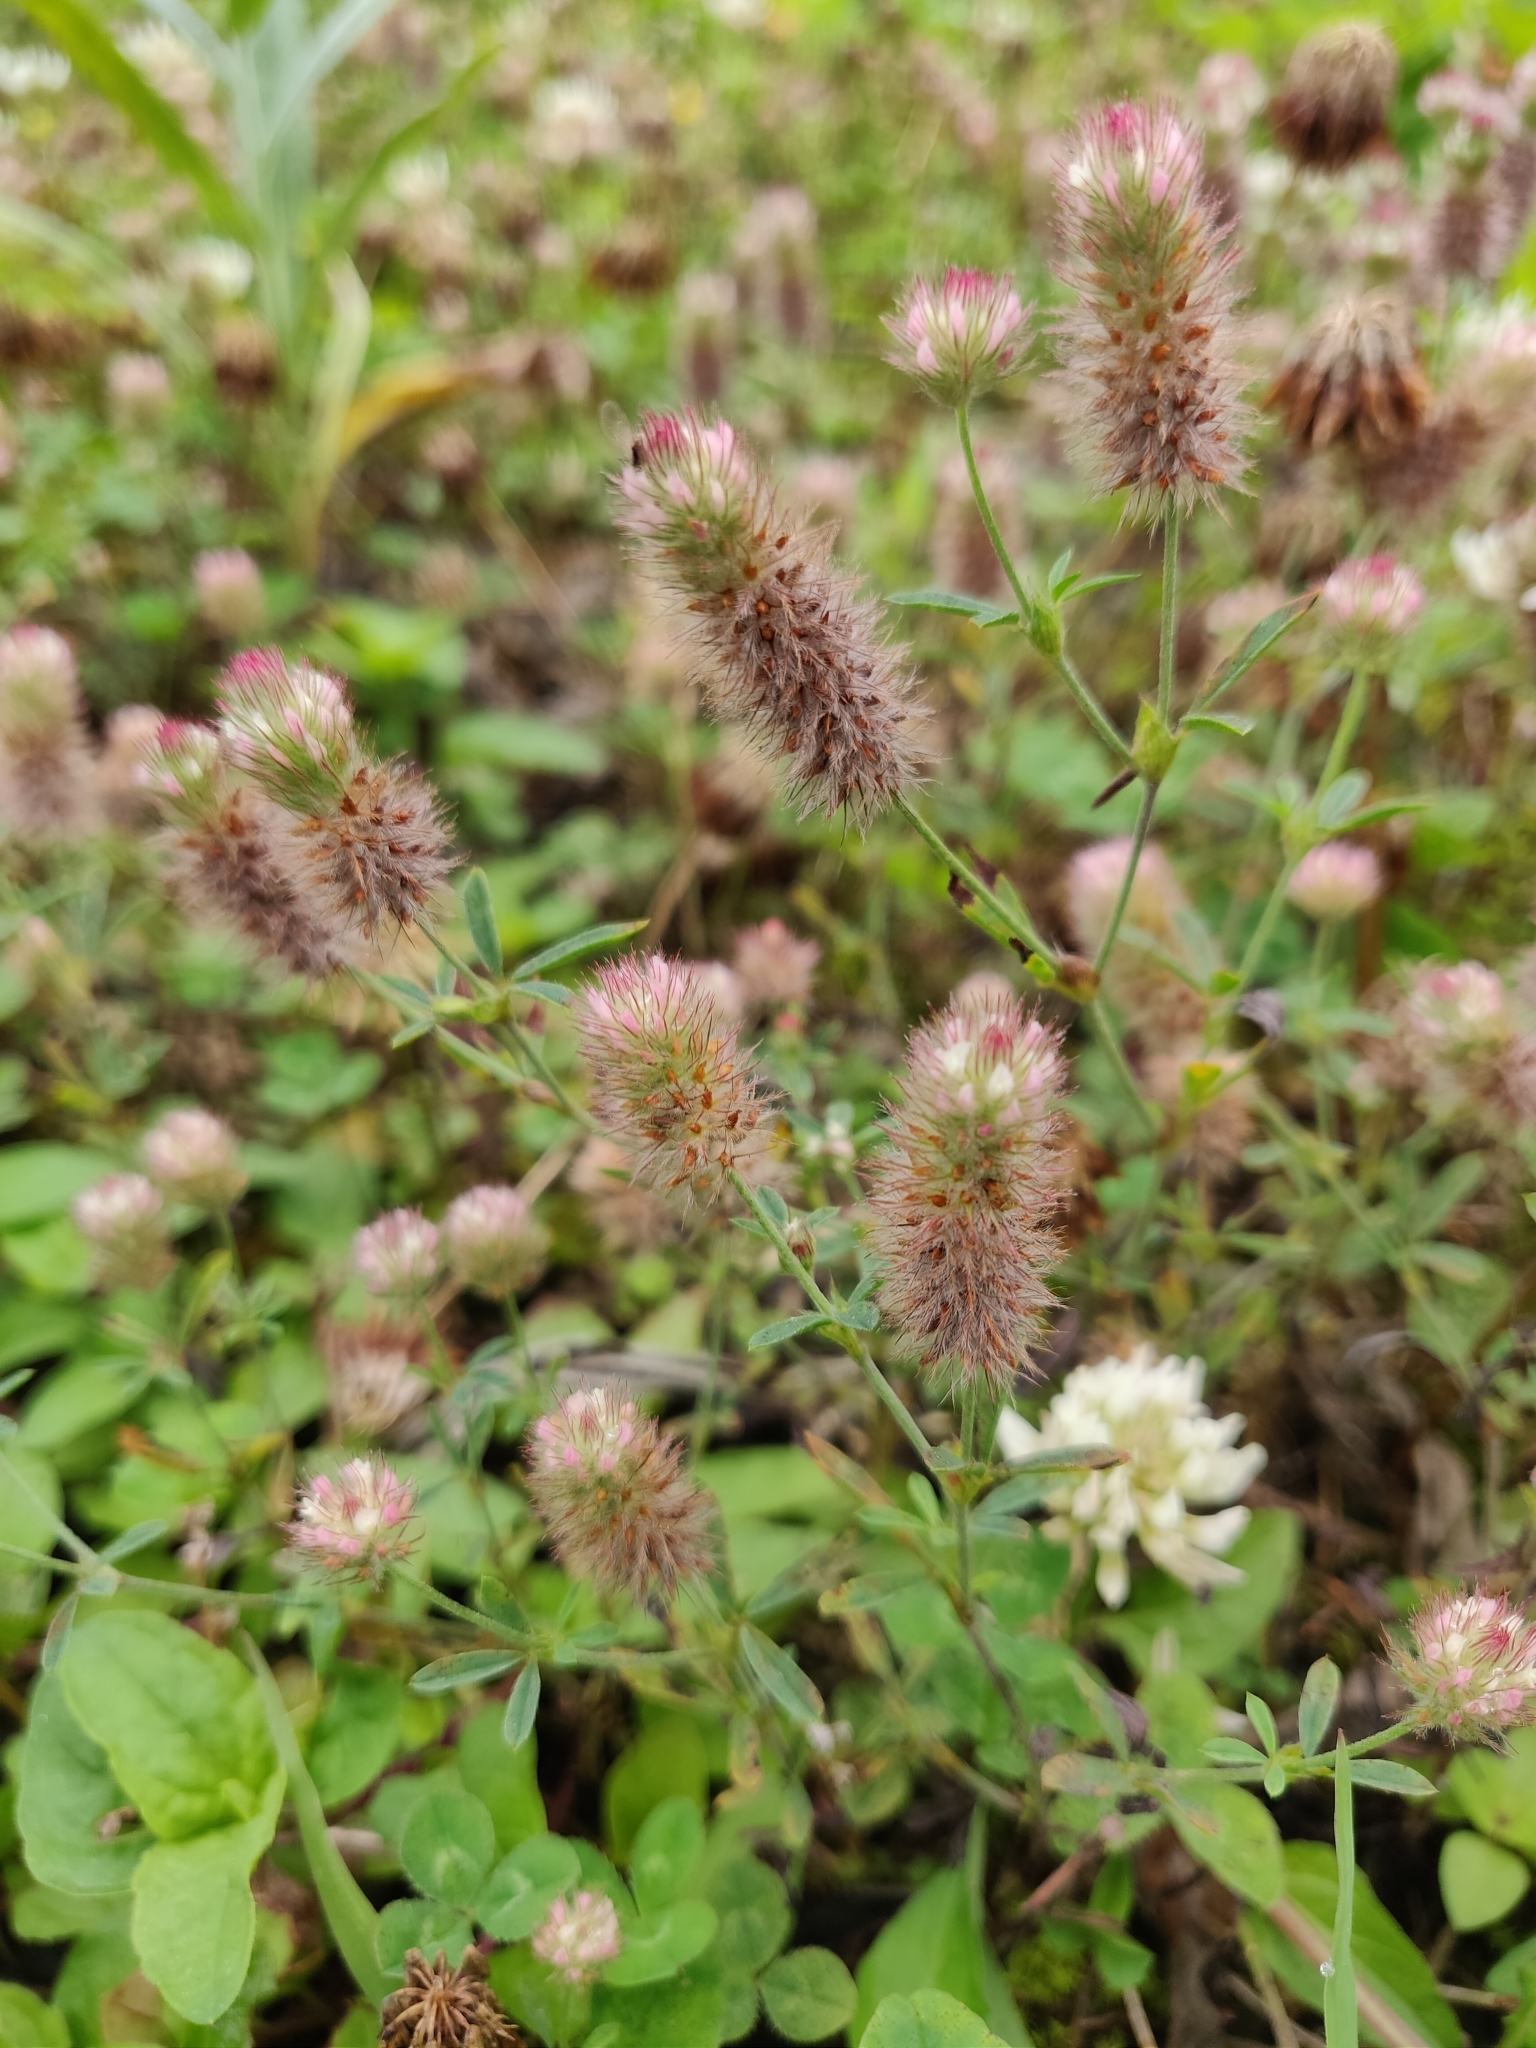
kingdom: Plantae
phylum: Tracheophyta
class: Magnoliopsida
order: Fabales
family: Fabaceae
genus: Trifolium
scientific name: Trifolium arvense
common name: Hare's-foot clover
